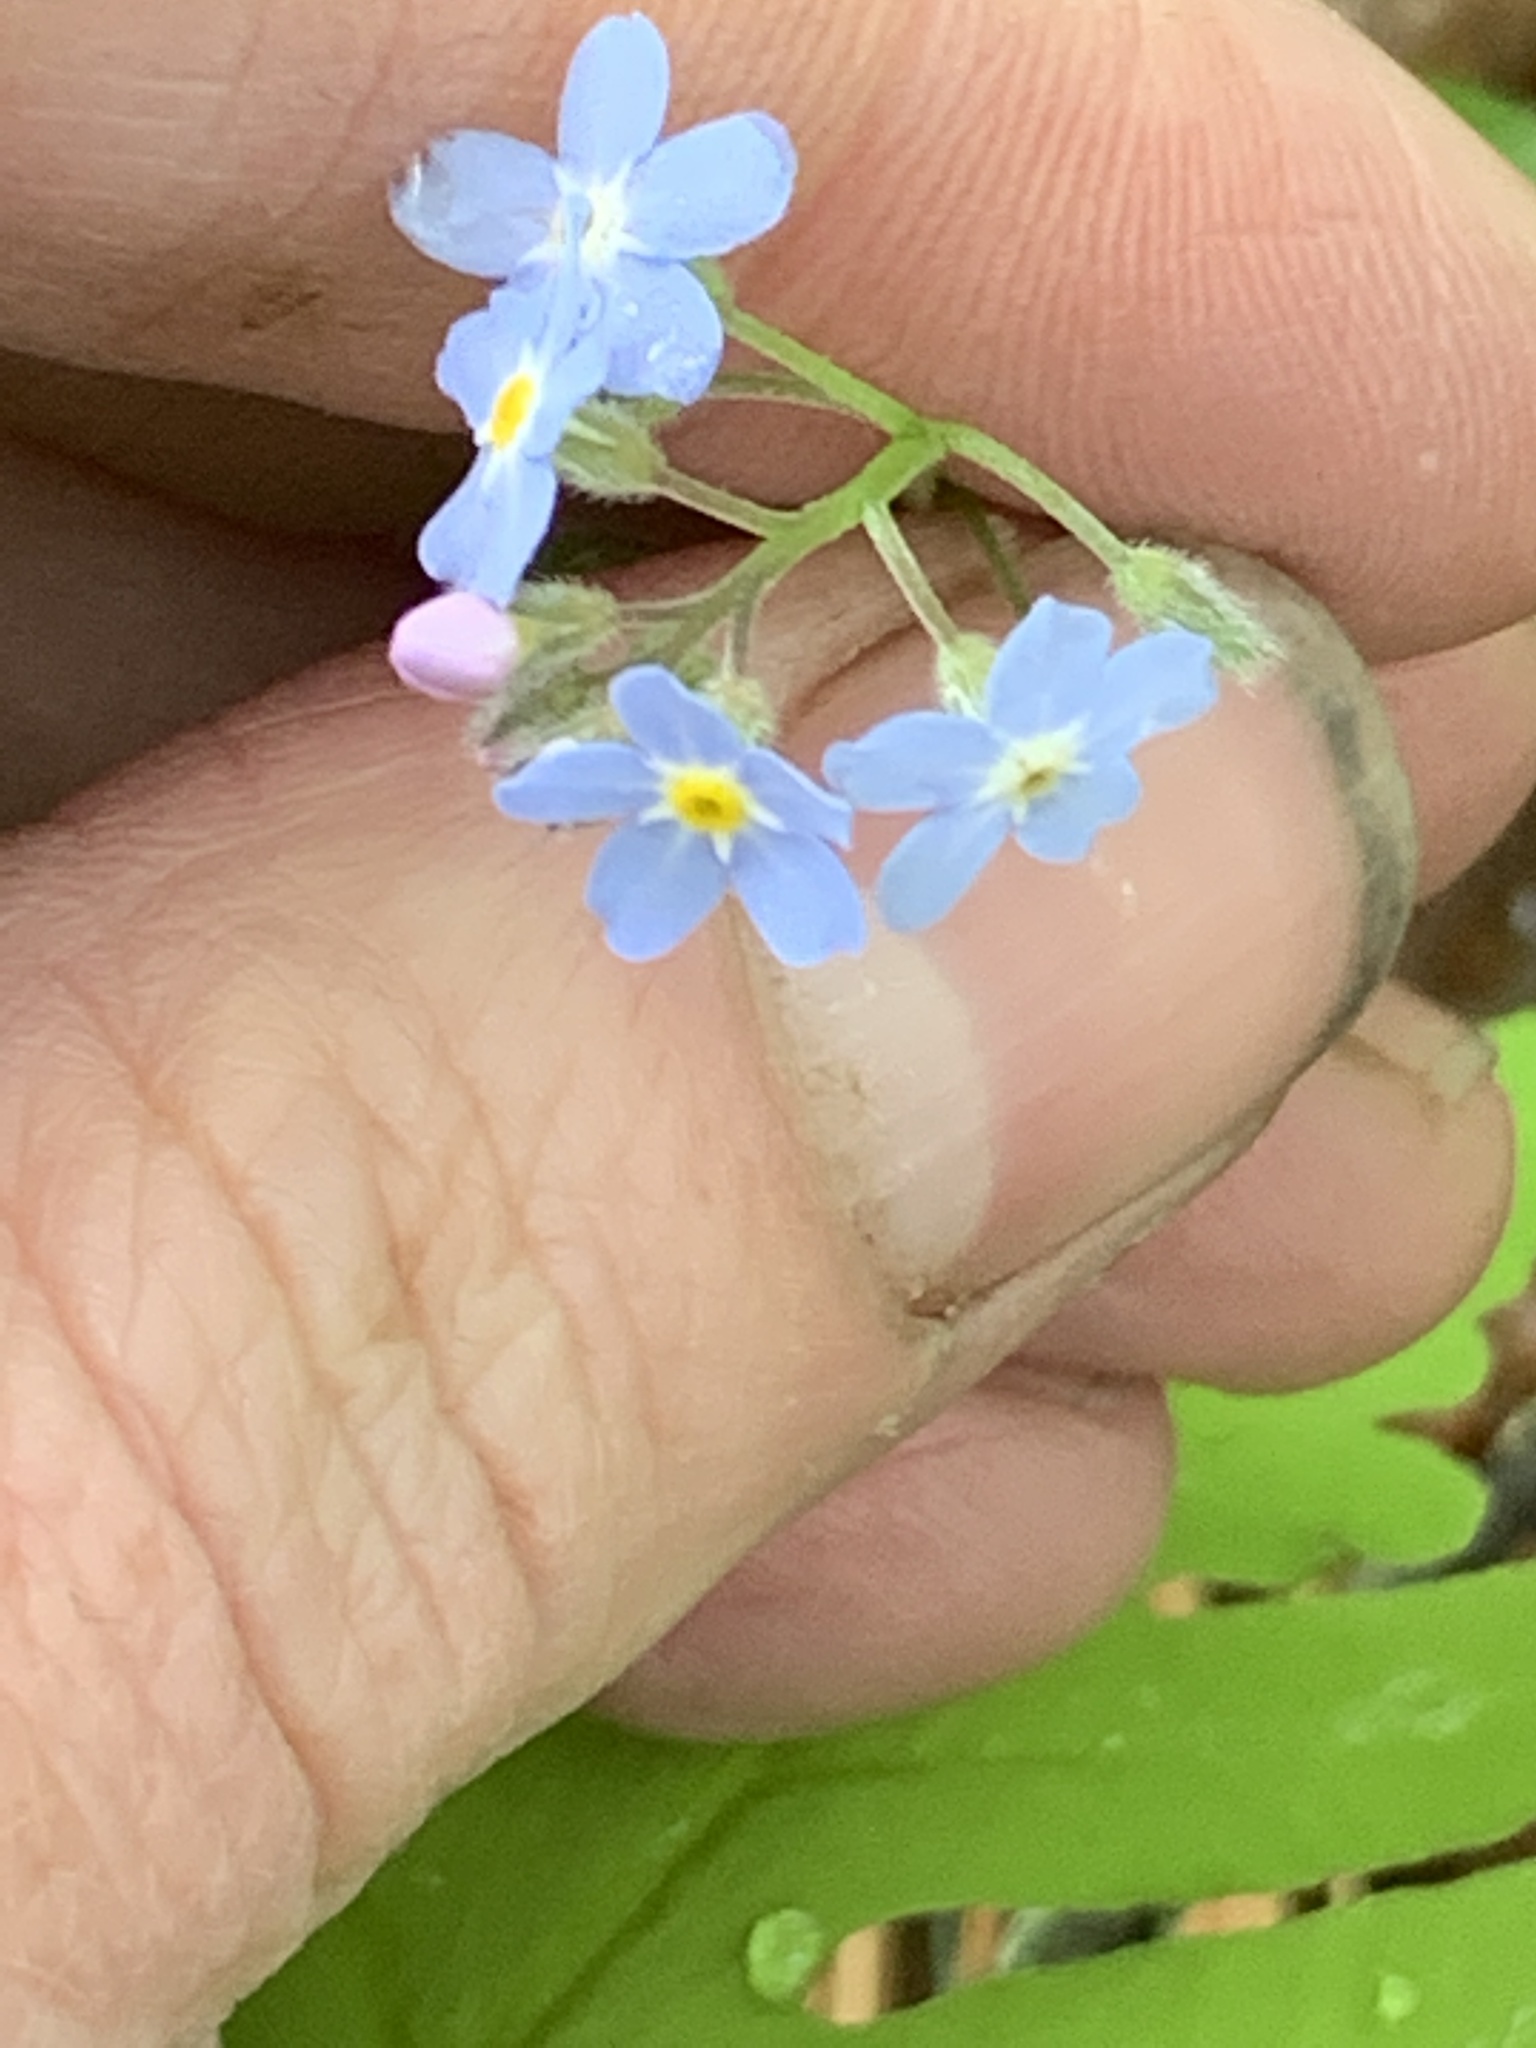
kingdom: Plantae
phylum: Tracheophyta
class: Magnoliopsida
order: Boraginales
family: Boraginaceae
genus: Myosotis
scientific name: Myosotis sylvatica
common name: Wood forget-me-not
